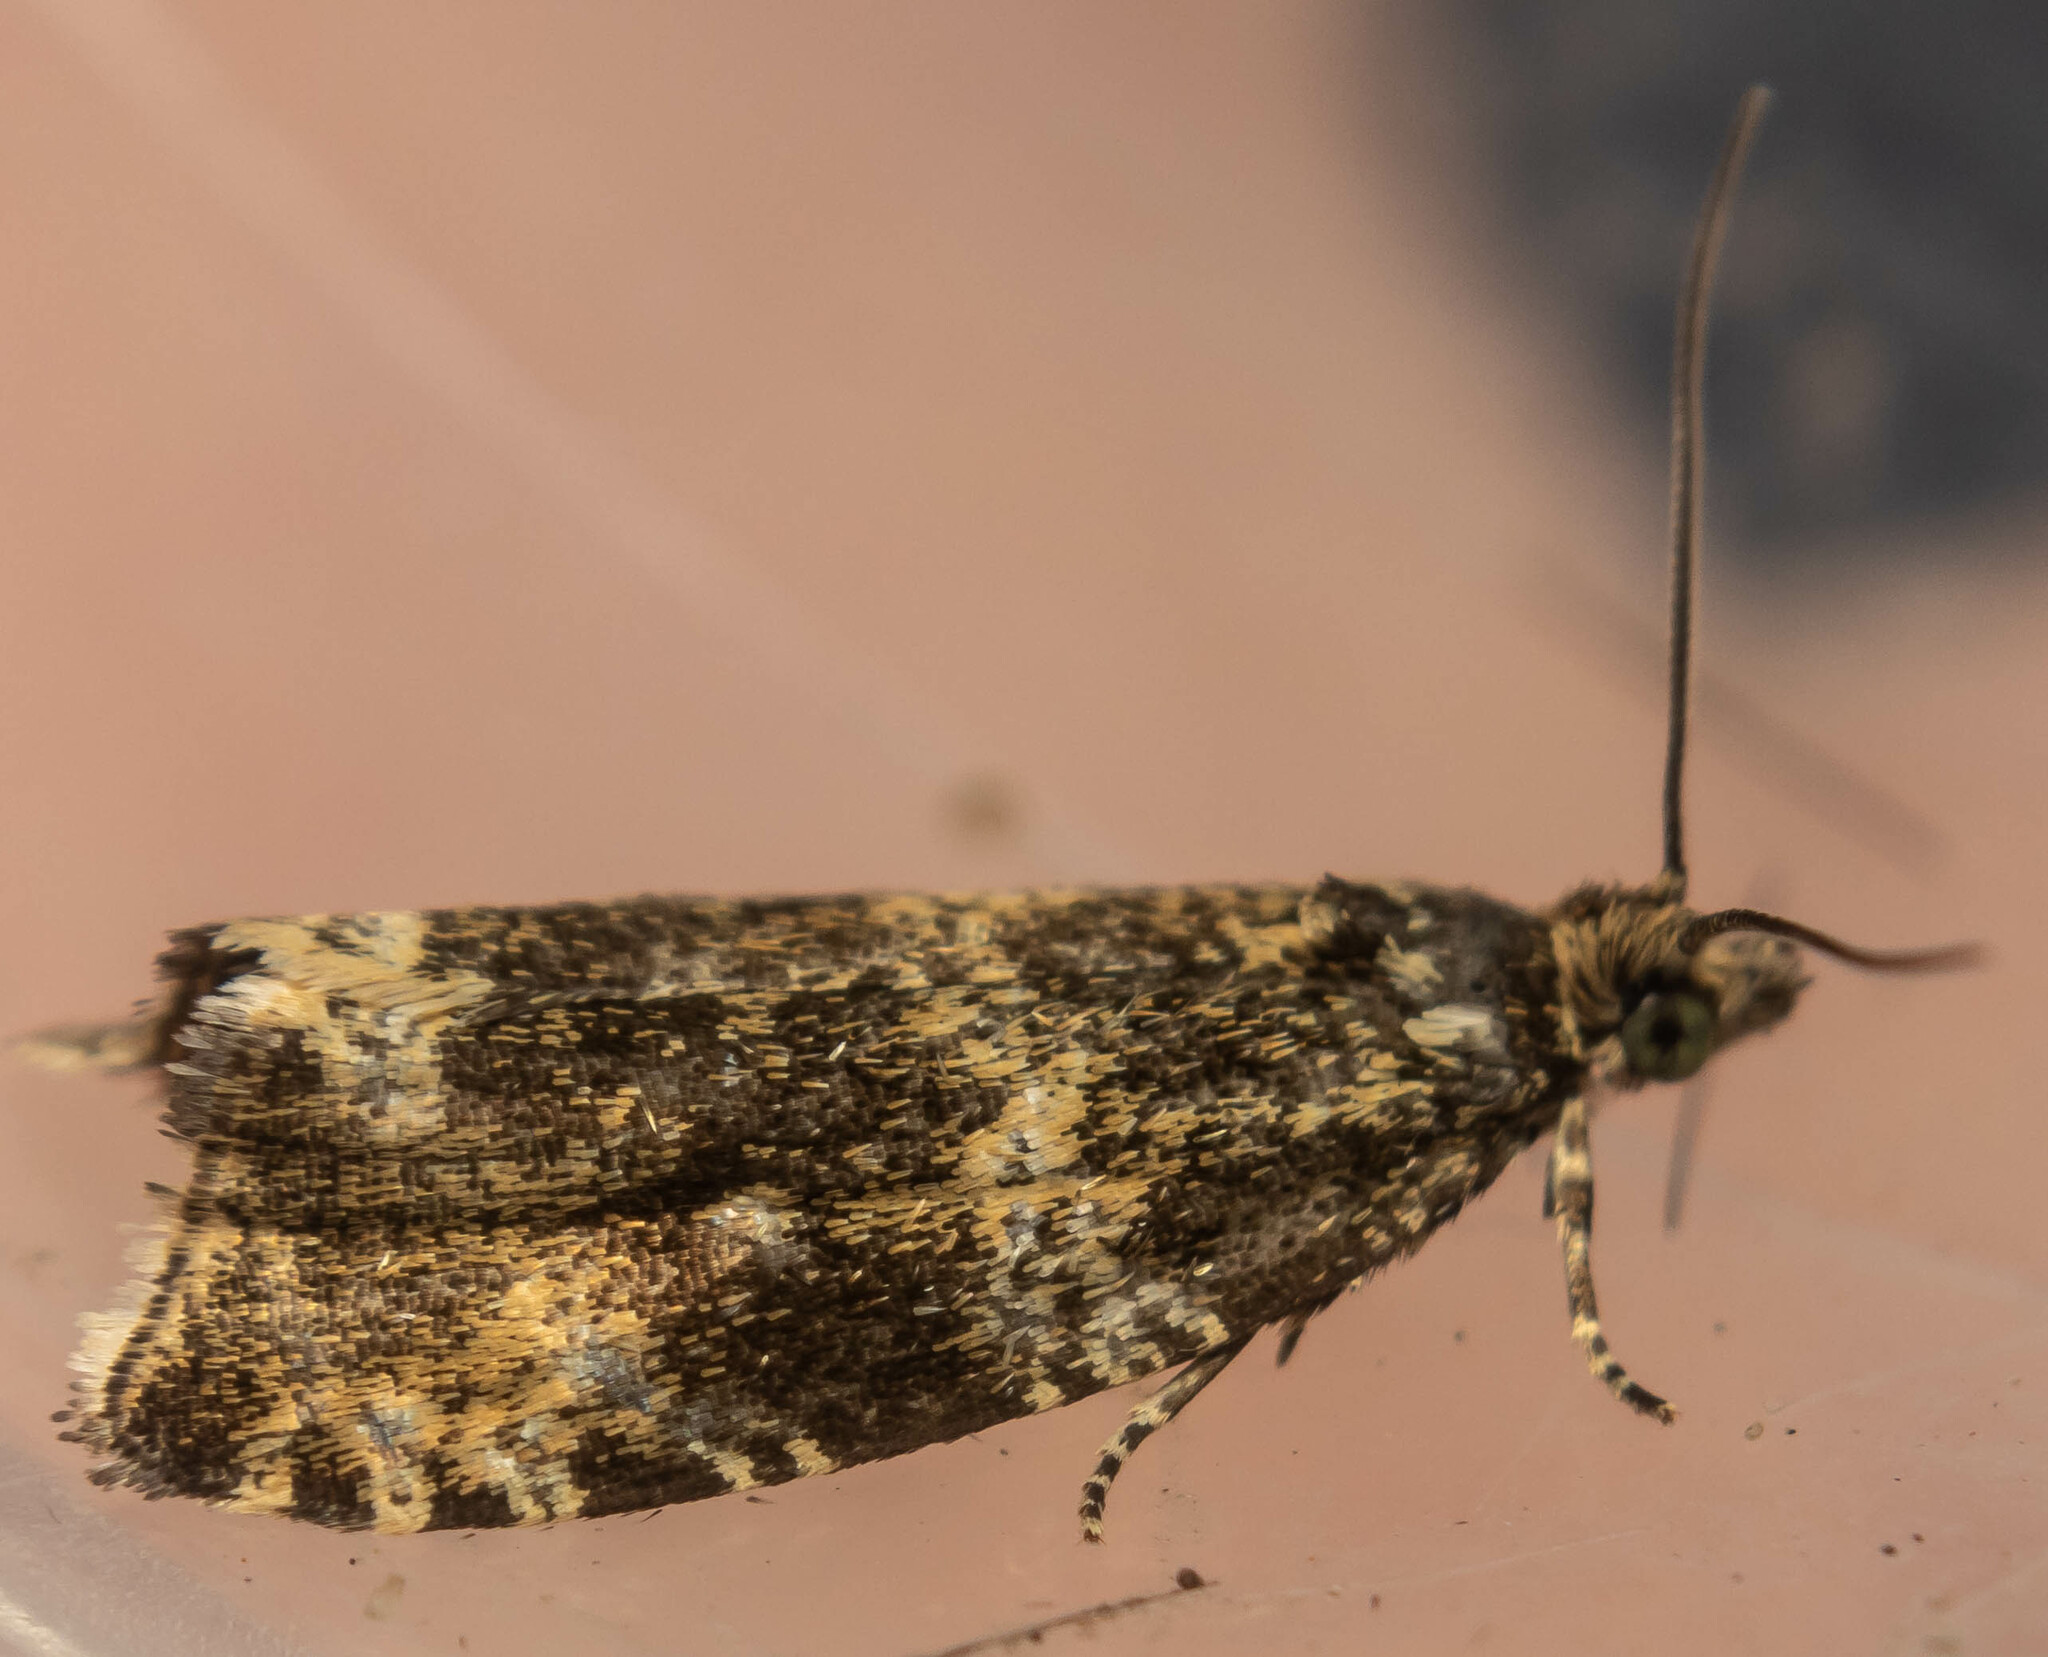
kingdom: Animalia
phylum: Arthropoda
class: Insecta
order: Lepidoptera
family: Tortricidae
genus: Syricoris
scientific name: Syricoris lacunana
